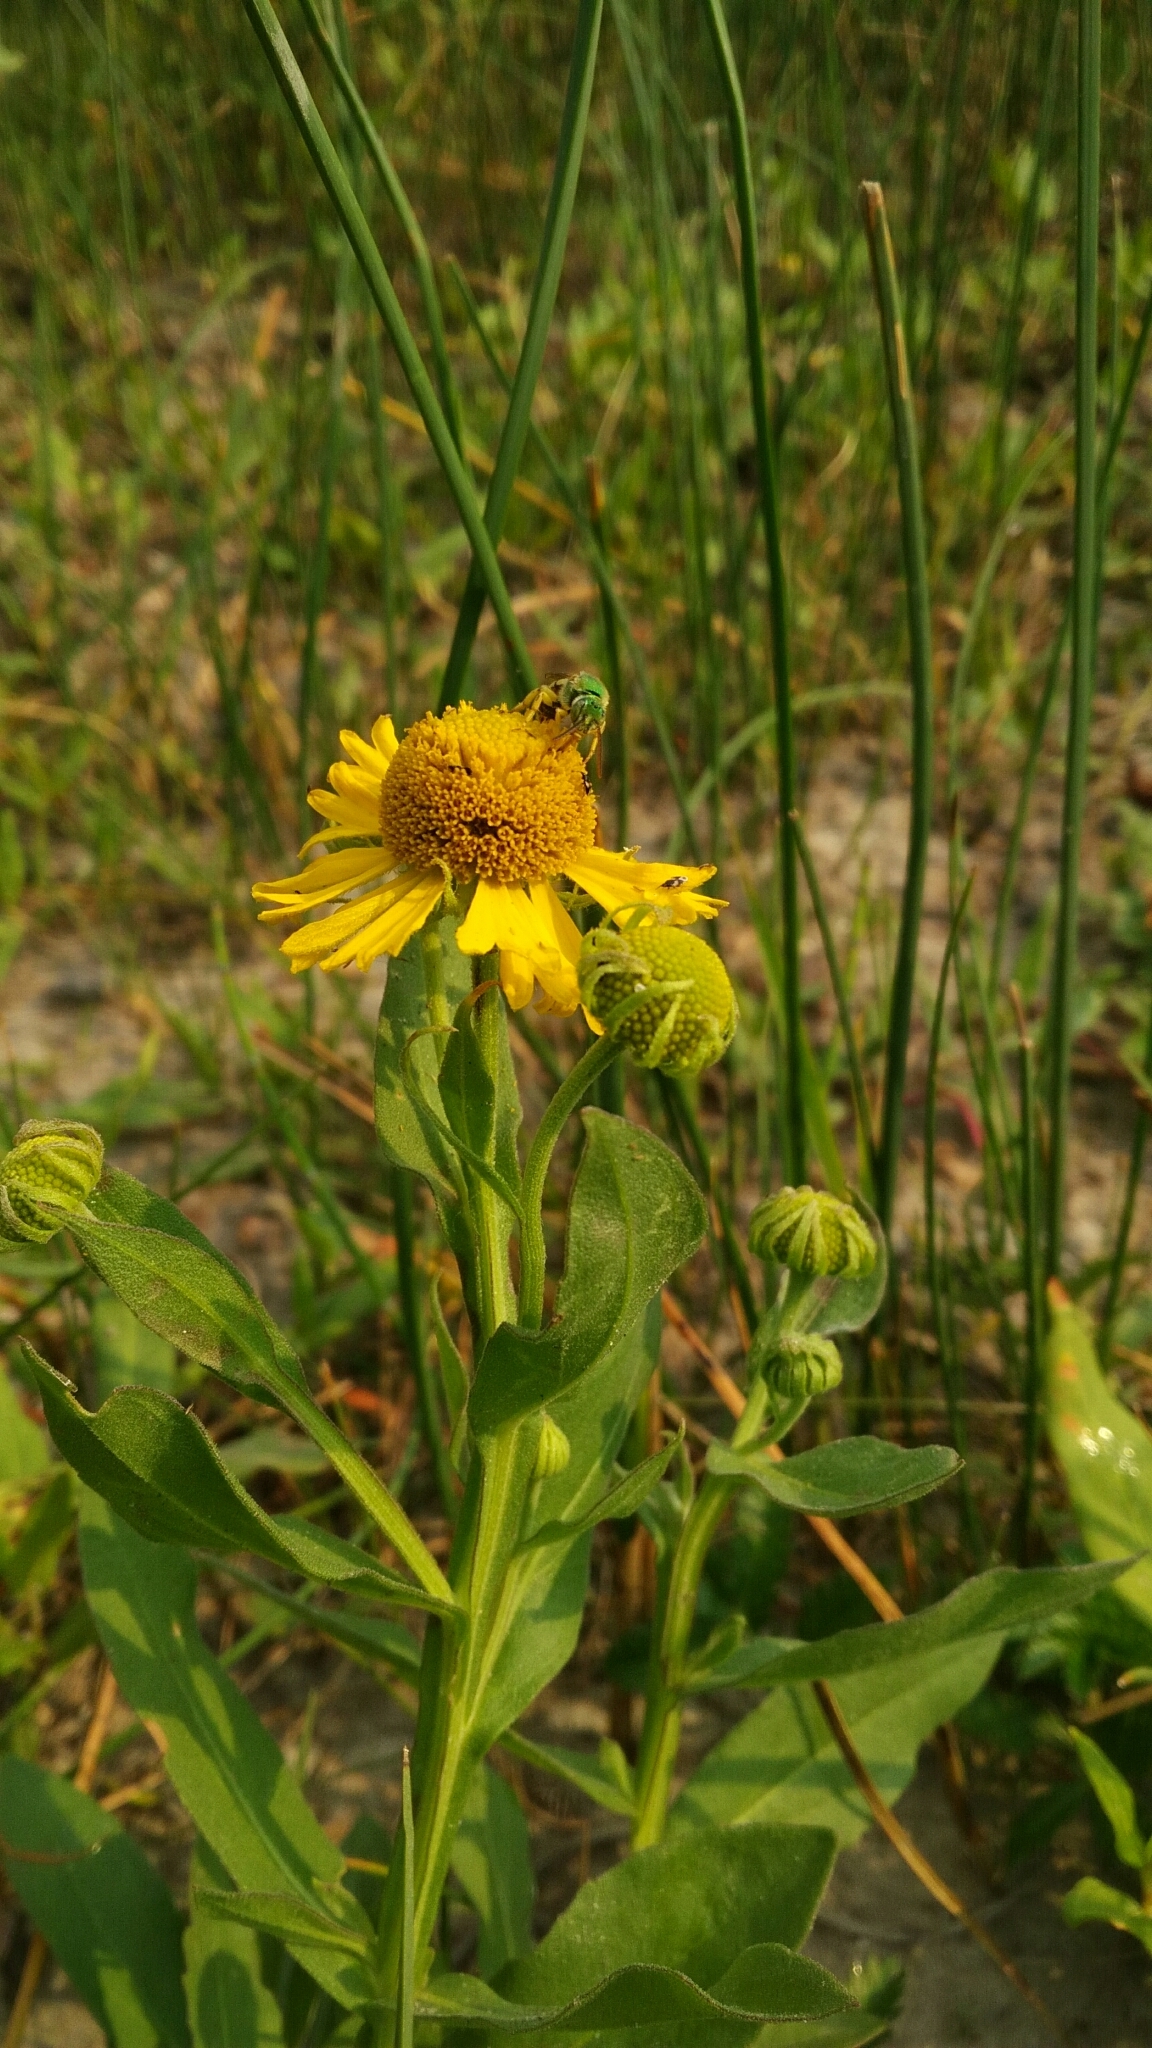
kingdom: Plantae
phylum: Tracheophyta
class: Magnoliopsida
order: Asterales
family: Asteraceae
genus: Helenium
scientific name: Helenium autumnale
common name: Sneezeweed
